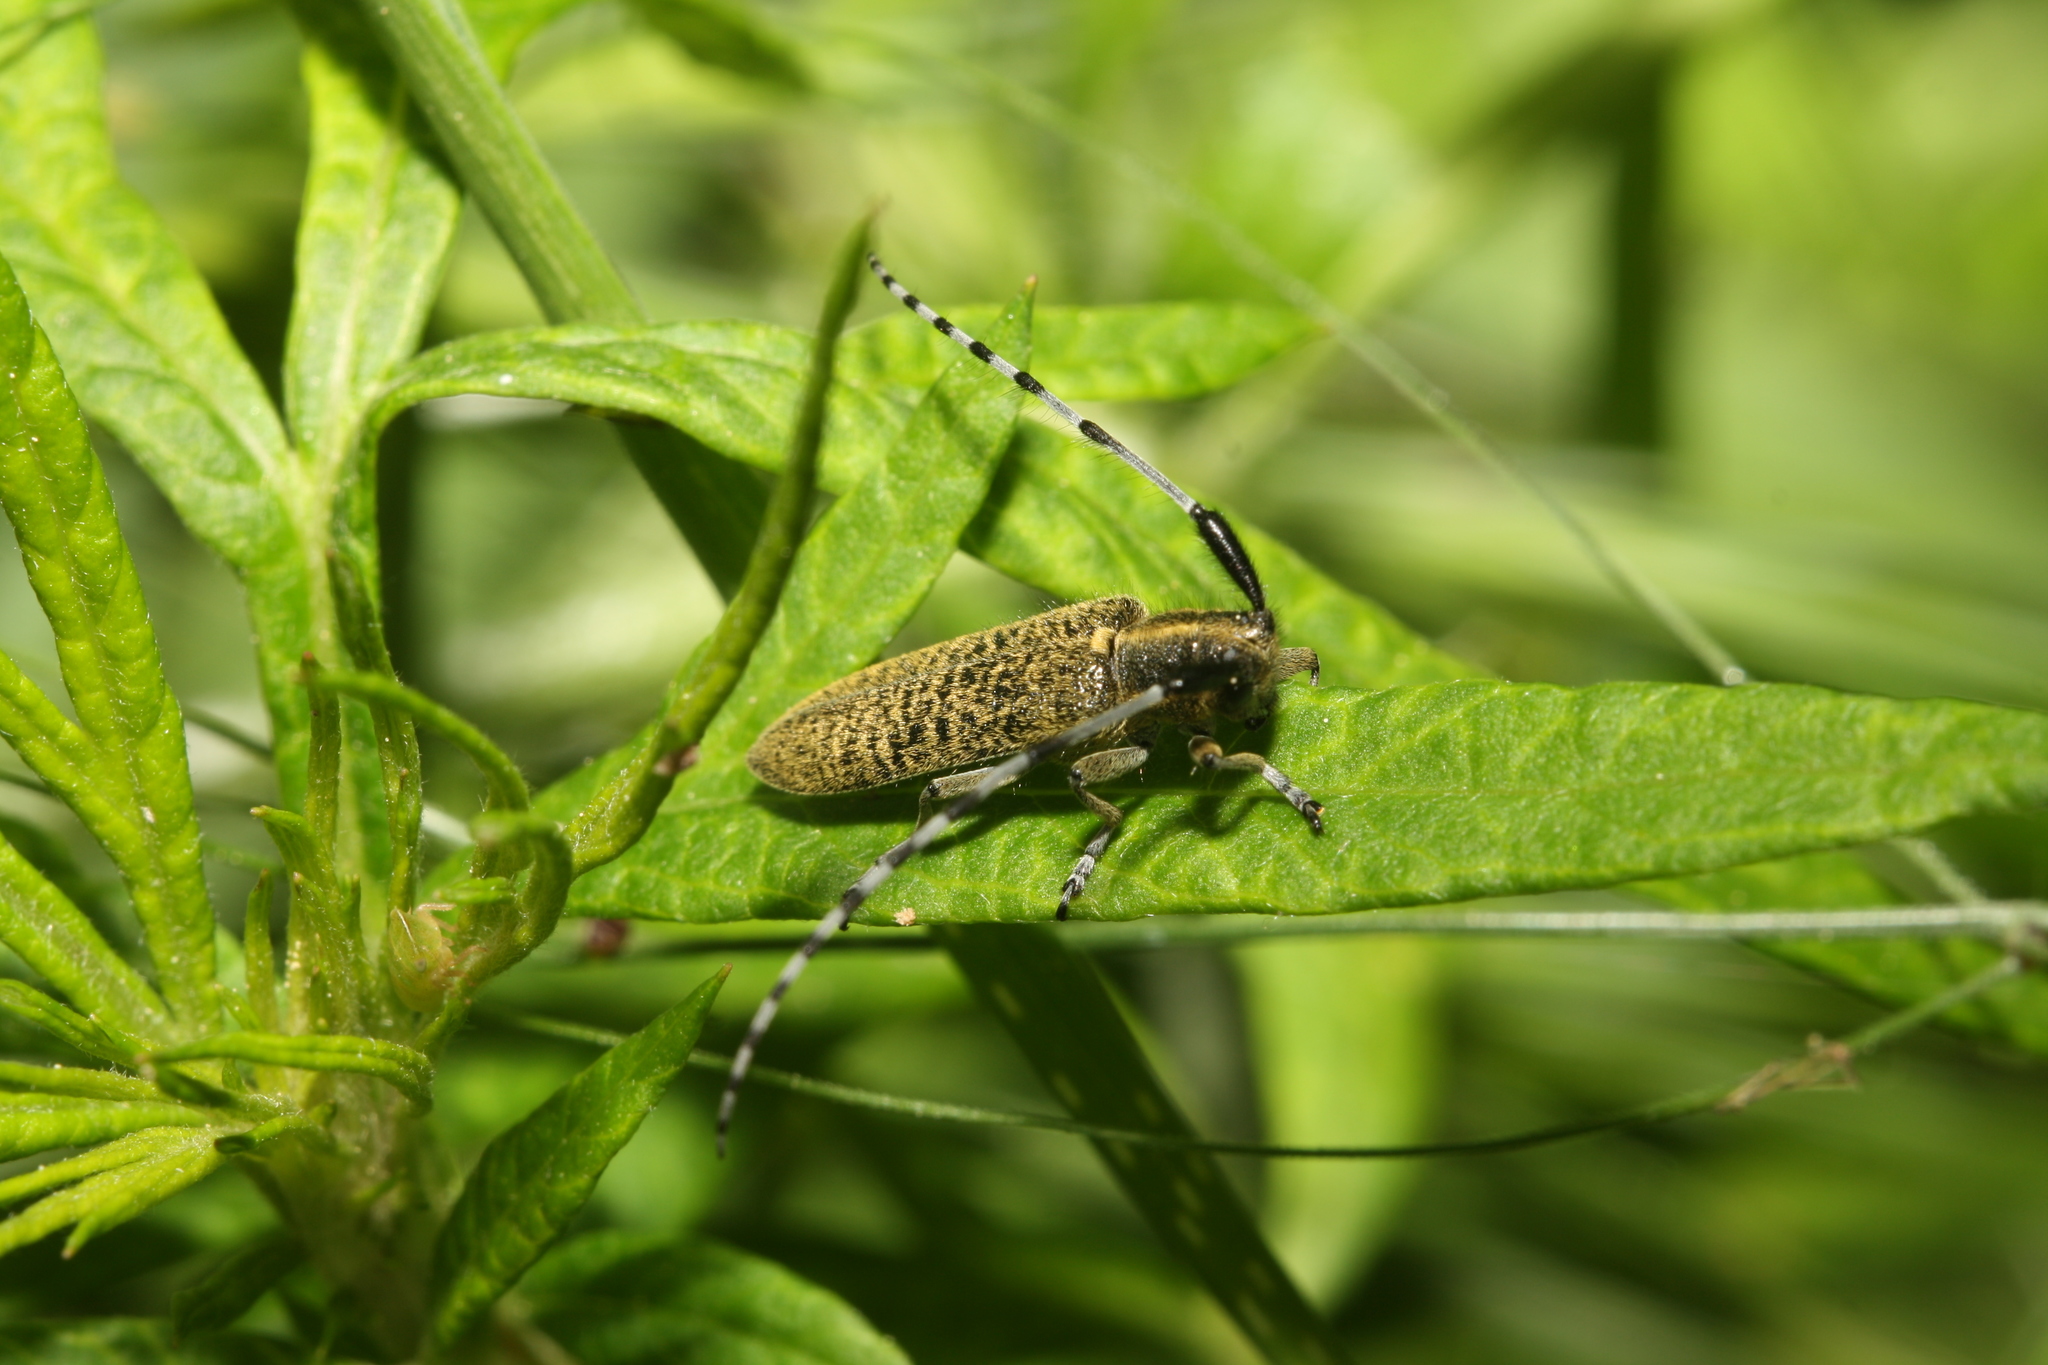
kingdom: Animalia
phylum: Arthropoda
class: Insecta
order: Coleoptera
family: Cerambycidae
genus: Agapanthia
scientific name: Agapanthia villosoviridescens
